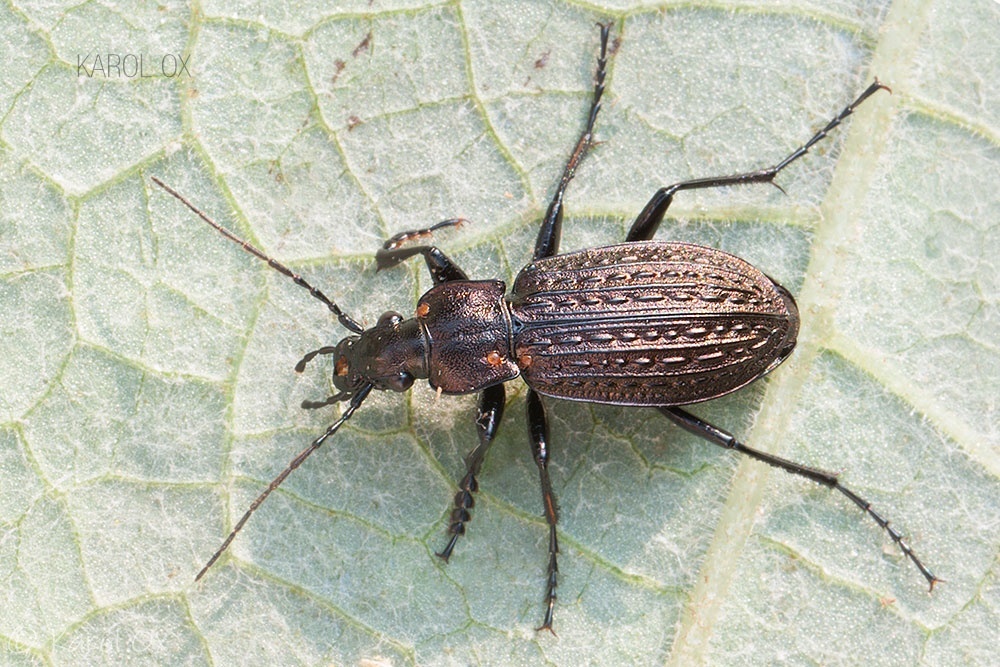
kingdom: Animalia
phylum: Arthropoda
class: Insecta
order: Coleoptera
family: Carabidae
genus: Carabus
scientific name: Carabus granulatus
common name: Granulate ground beetle
